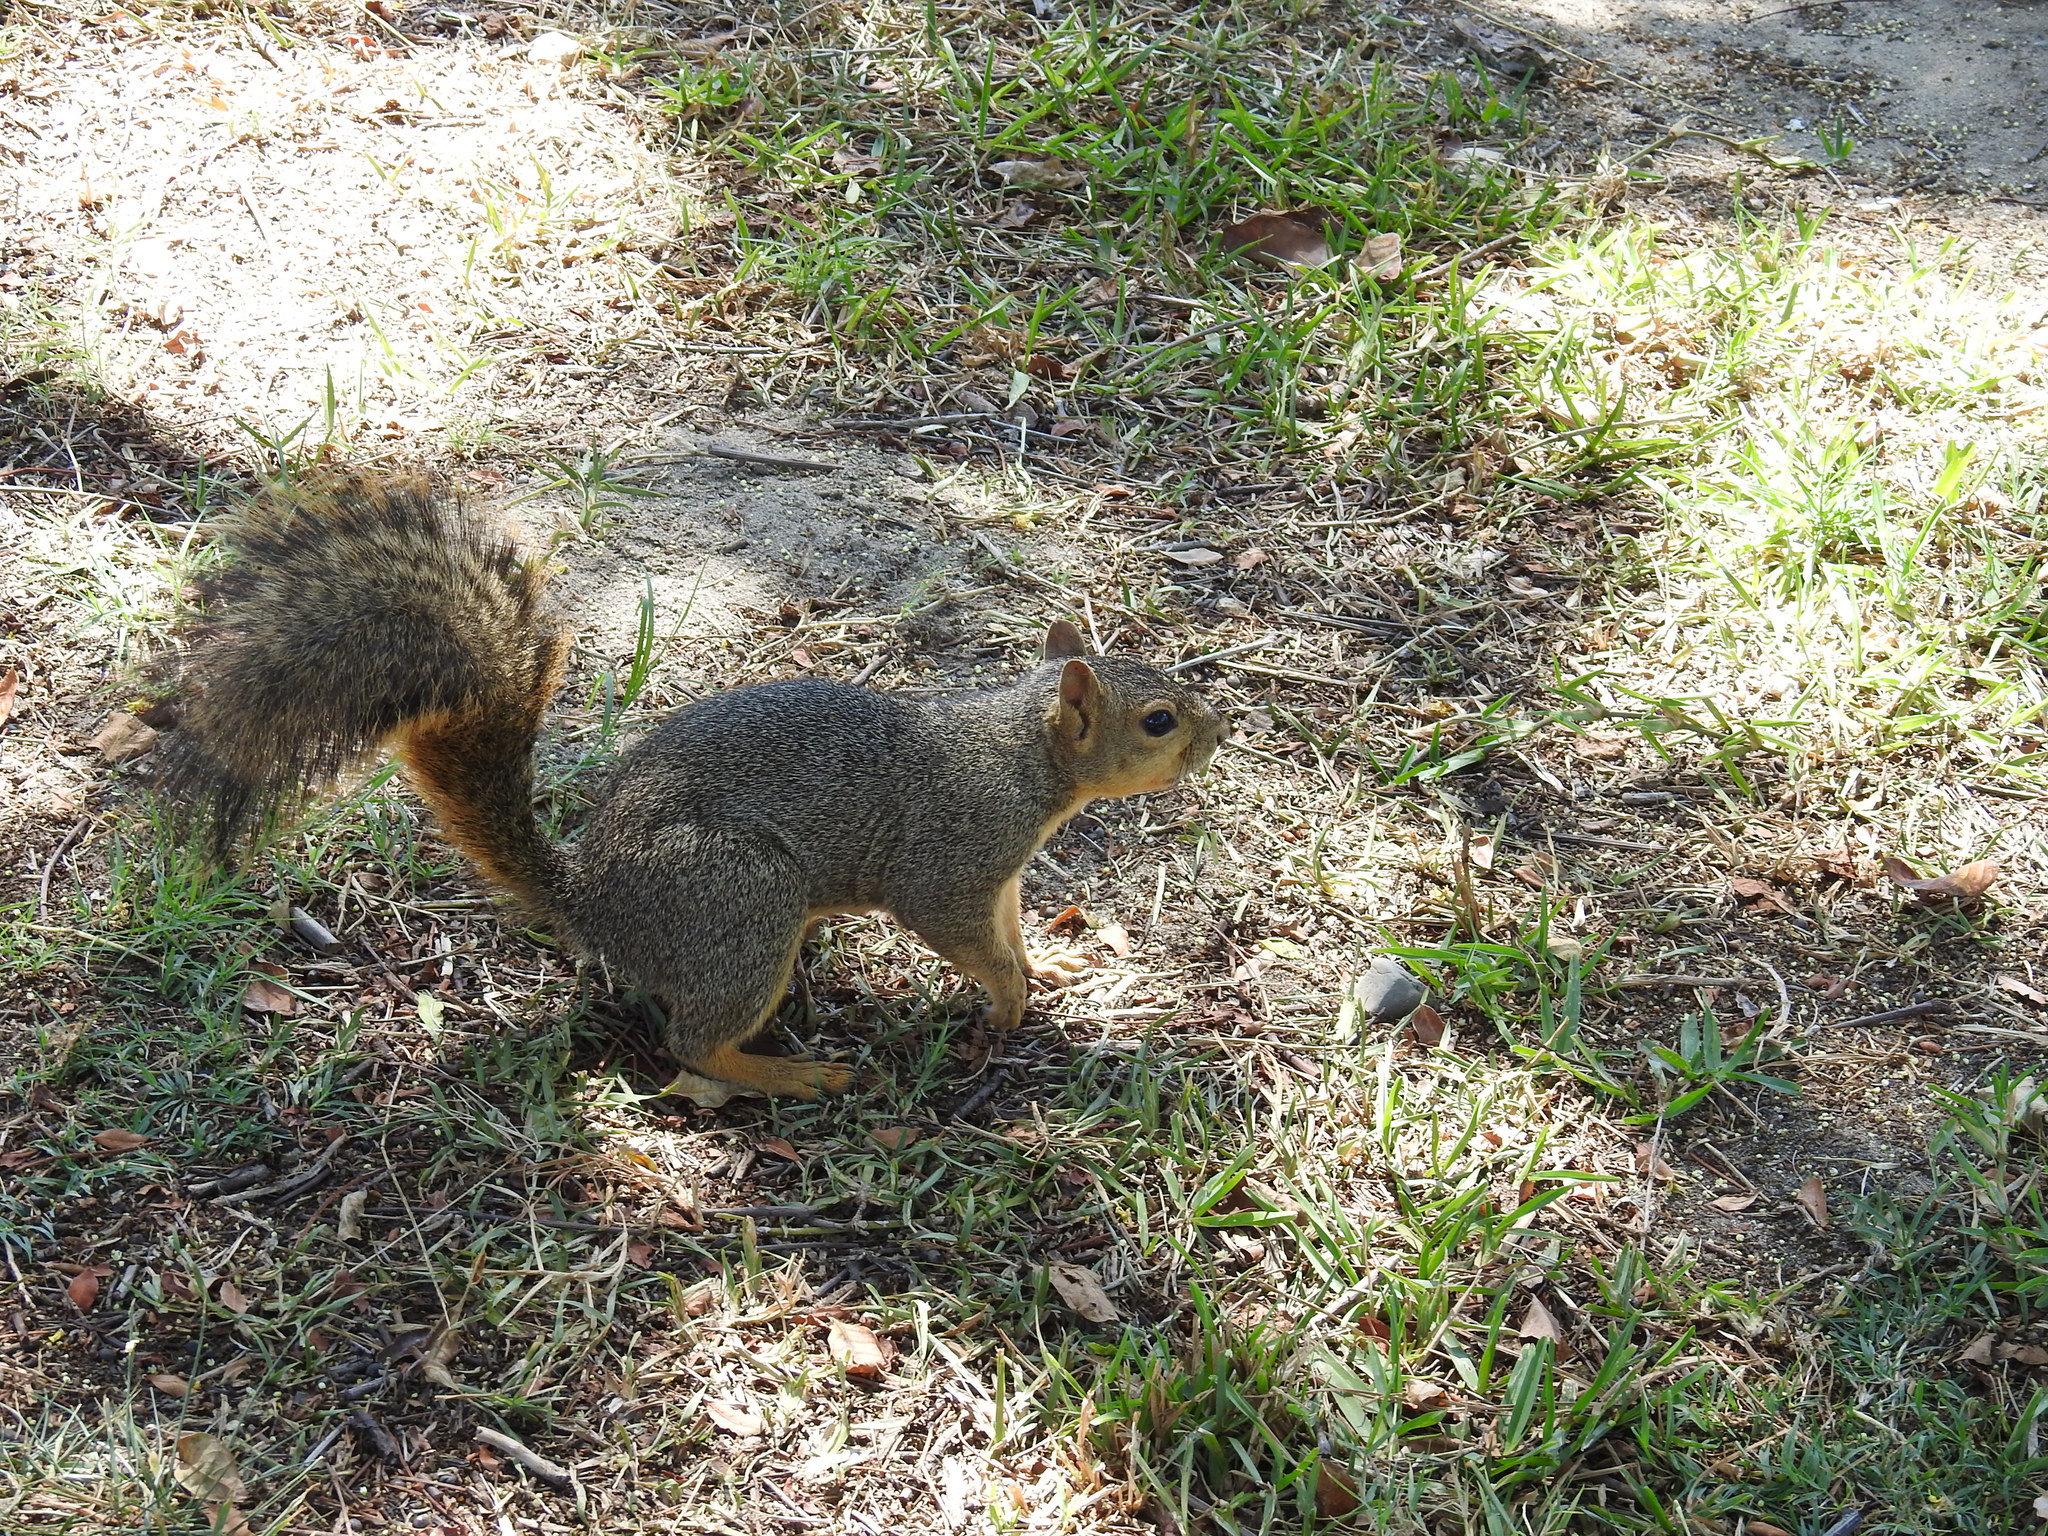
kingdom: Animalia
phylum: Chordata
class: Mammalia
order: Rodentia
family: Sciuridae
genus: Sciurus
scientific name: Sciurus niger
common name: Fox squirrel
